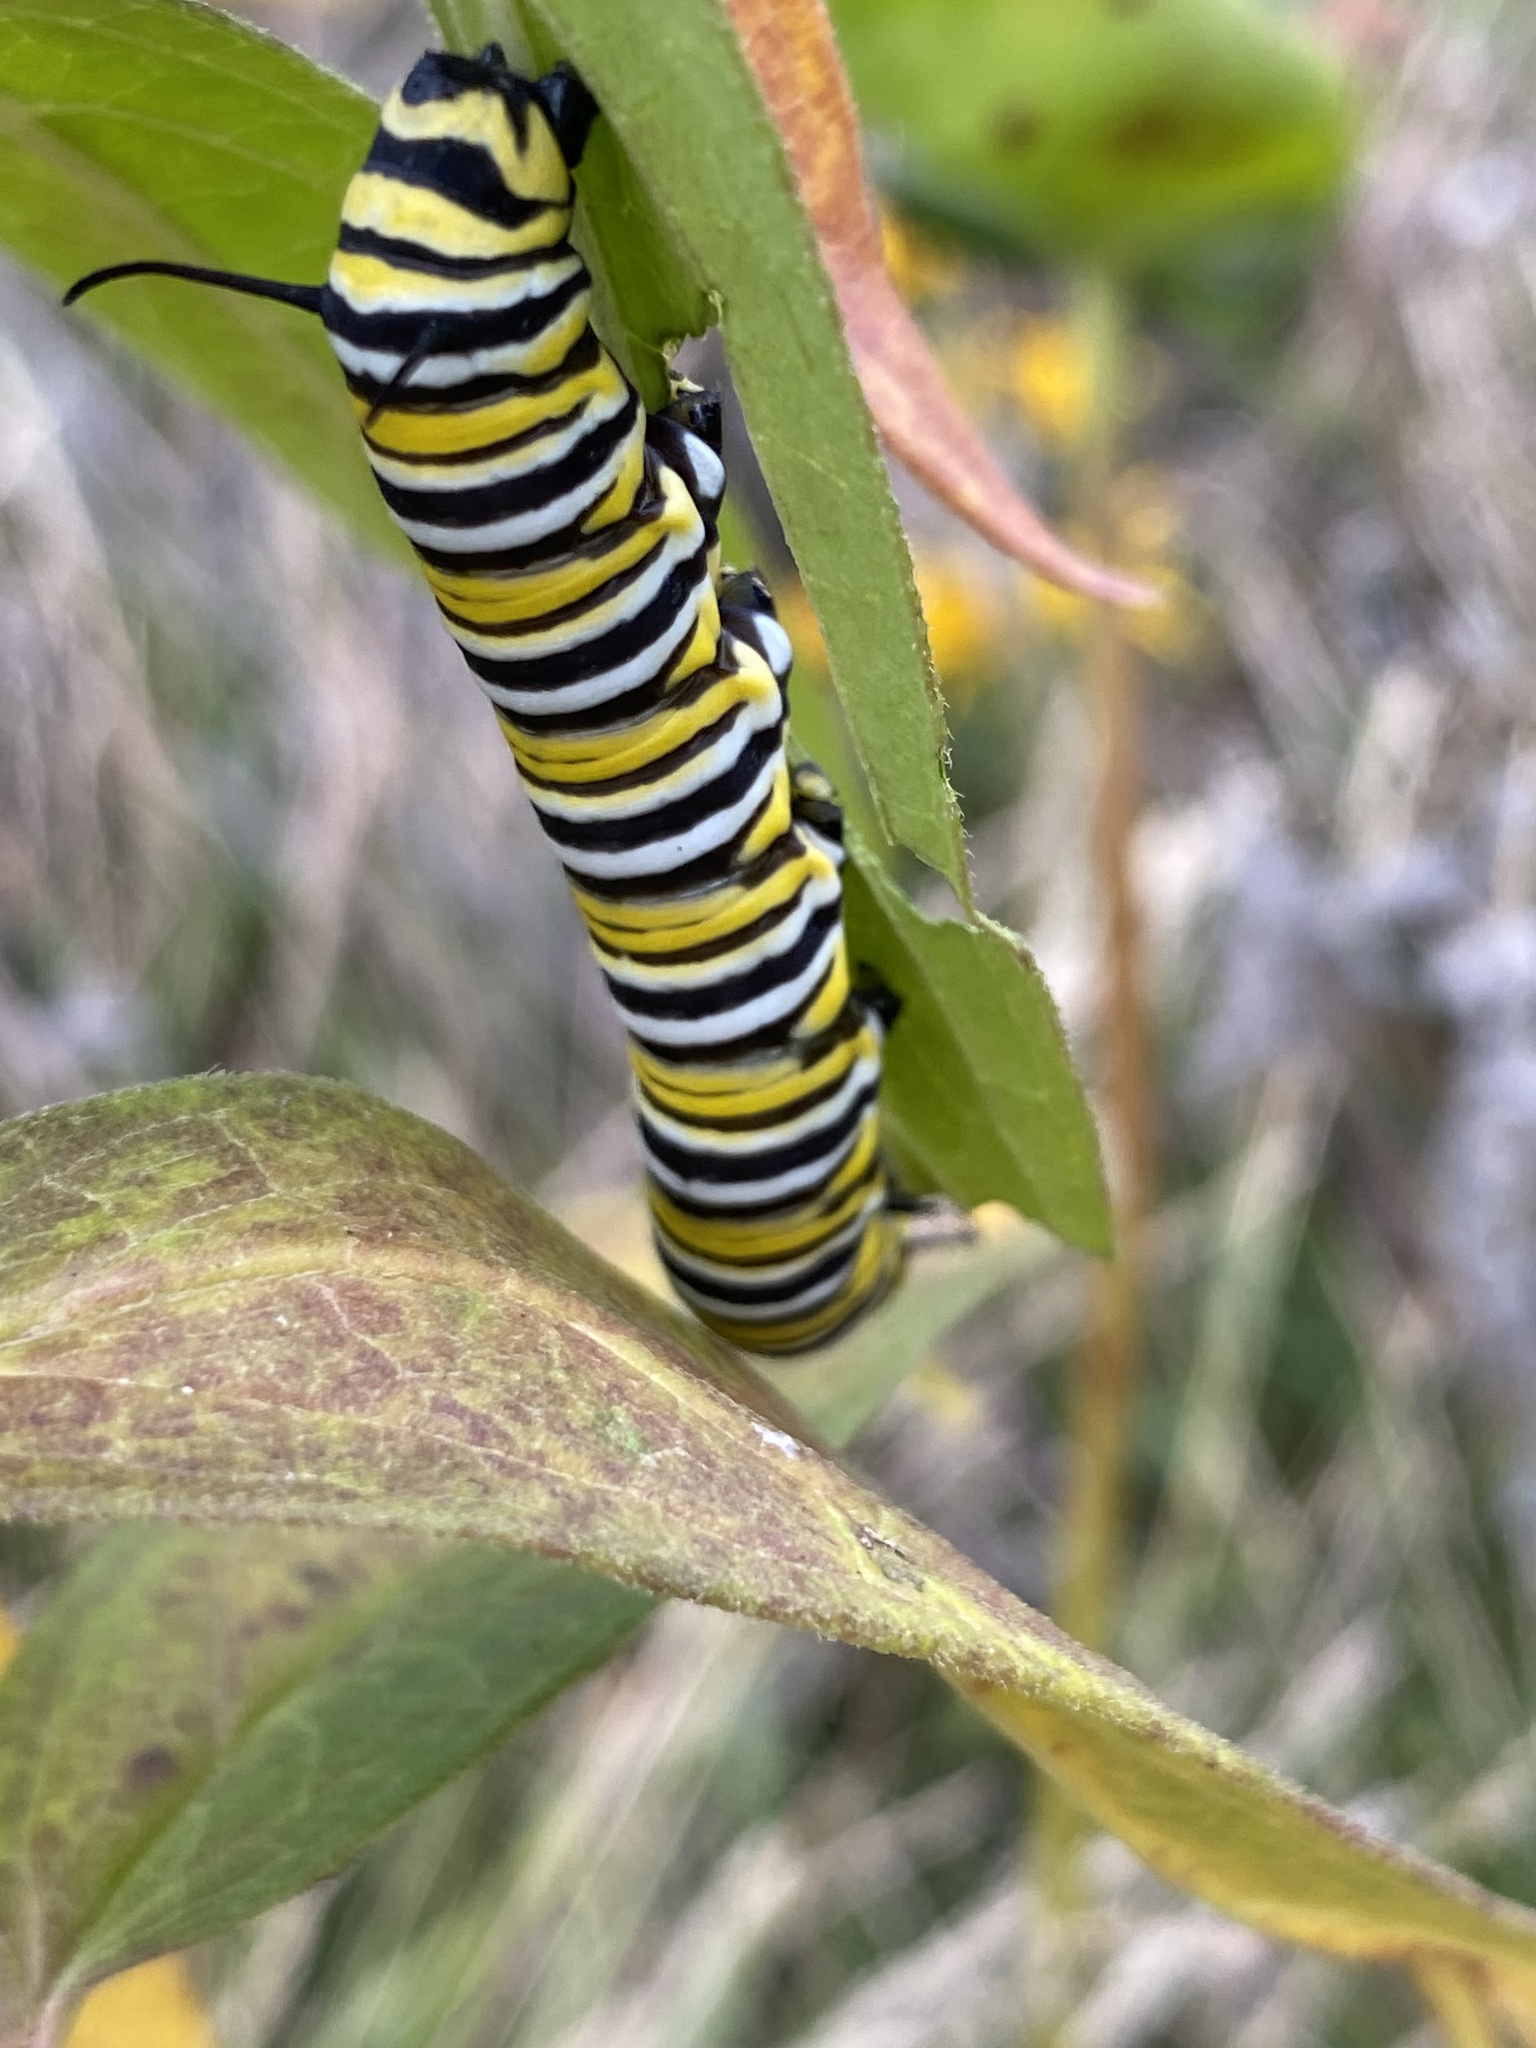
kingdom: Animalia
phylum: Arthropoda
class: Insecta
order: Lepidoptera
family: Nymphalidae
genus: Danaus
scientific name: Danaus plexippus
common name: Monarch
